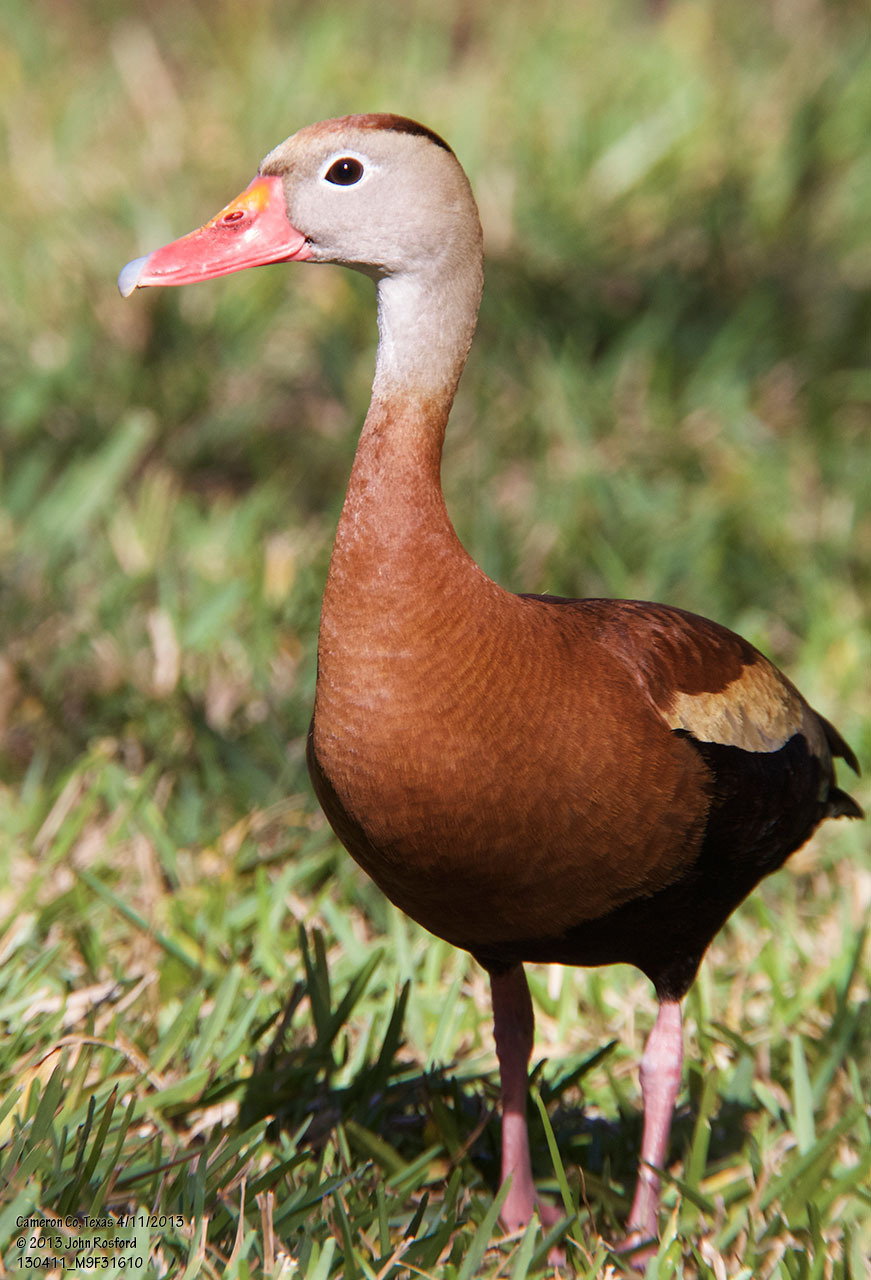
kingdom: Animalia
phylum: Chordata
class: Aves
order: Anseriformes
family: Anatidae
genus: Dendrocygna
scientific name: Dendrocygna autumnalis
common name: Black-bellied whistling duck
